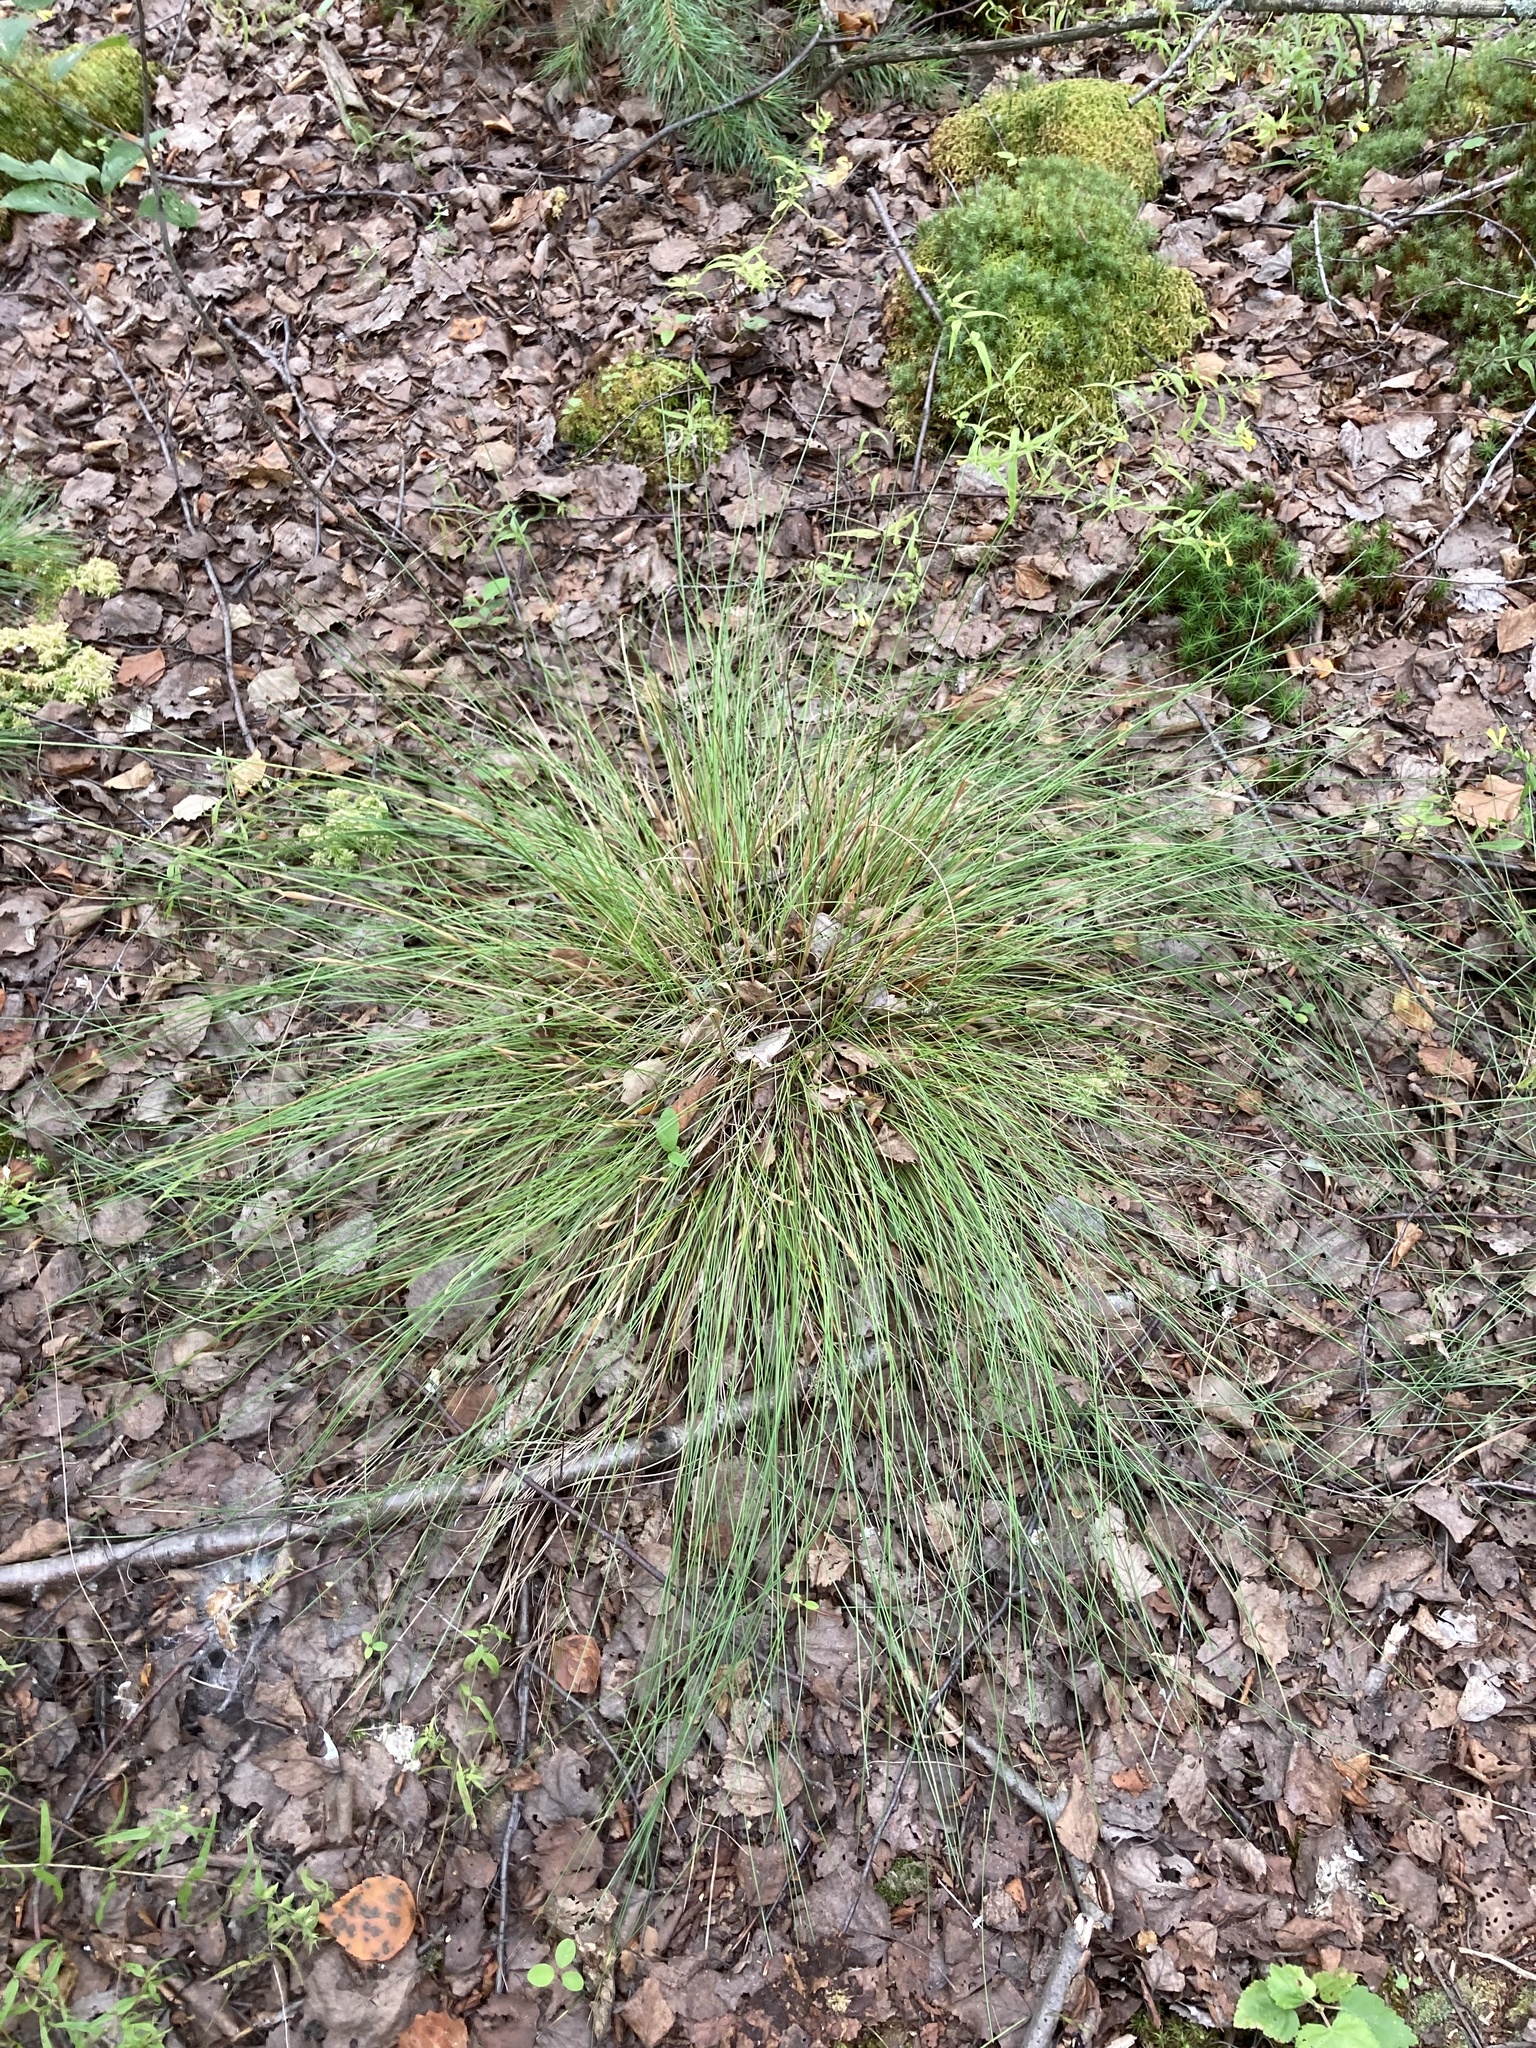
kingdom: Plantae
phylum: Tracheophyta
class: Liliopsida
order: Poales
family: Cyperaceae
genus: Eriophorum
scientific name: Eriophorum vaginatum
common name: Hare's-tail cottongrass
